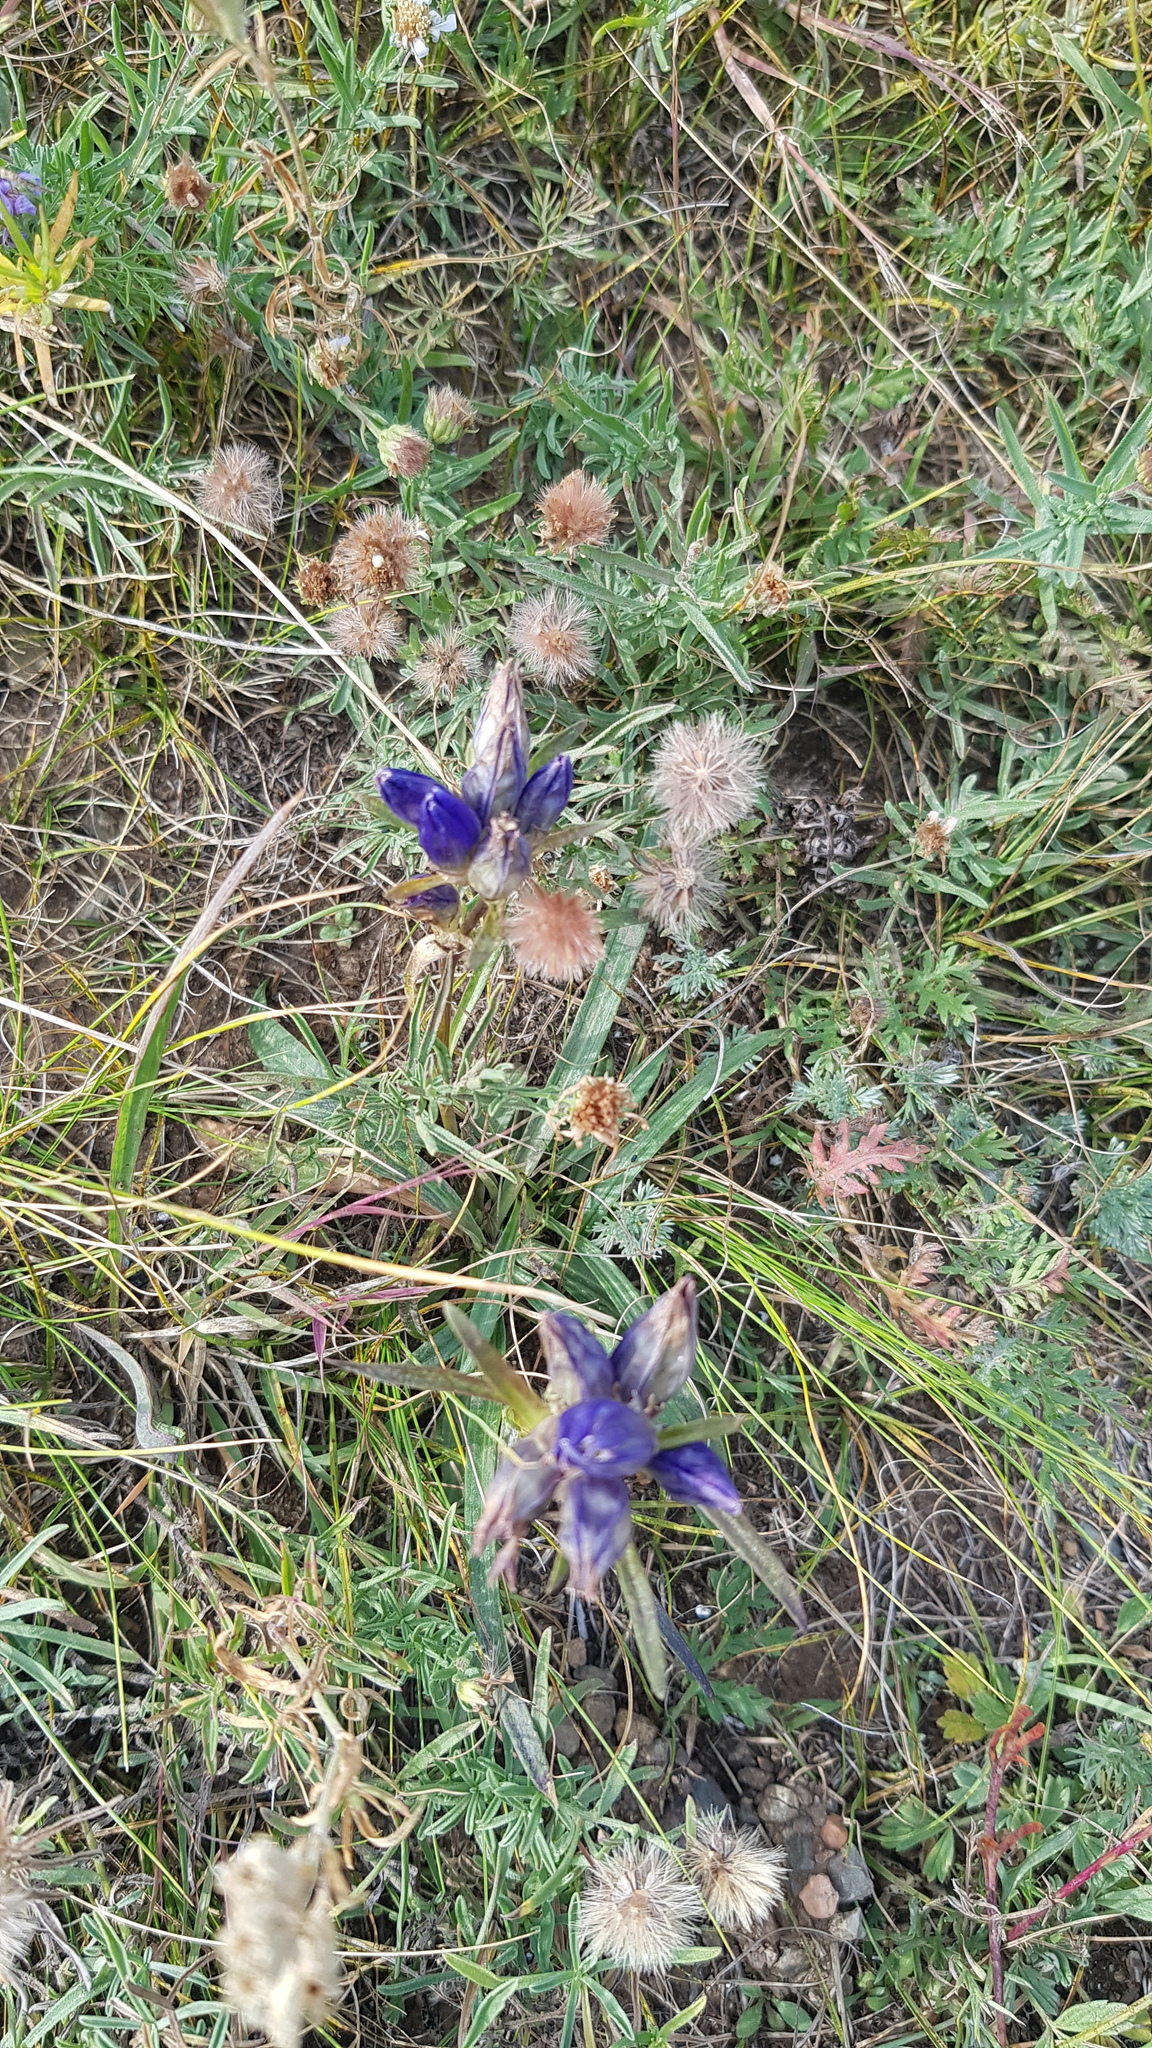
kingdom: Plantae
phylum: Tracheophyta
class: Magnoliopsida
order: Gentianales
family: Gentianaceae
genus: Gentiana
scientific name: Gentiana decumbens
